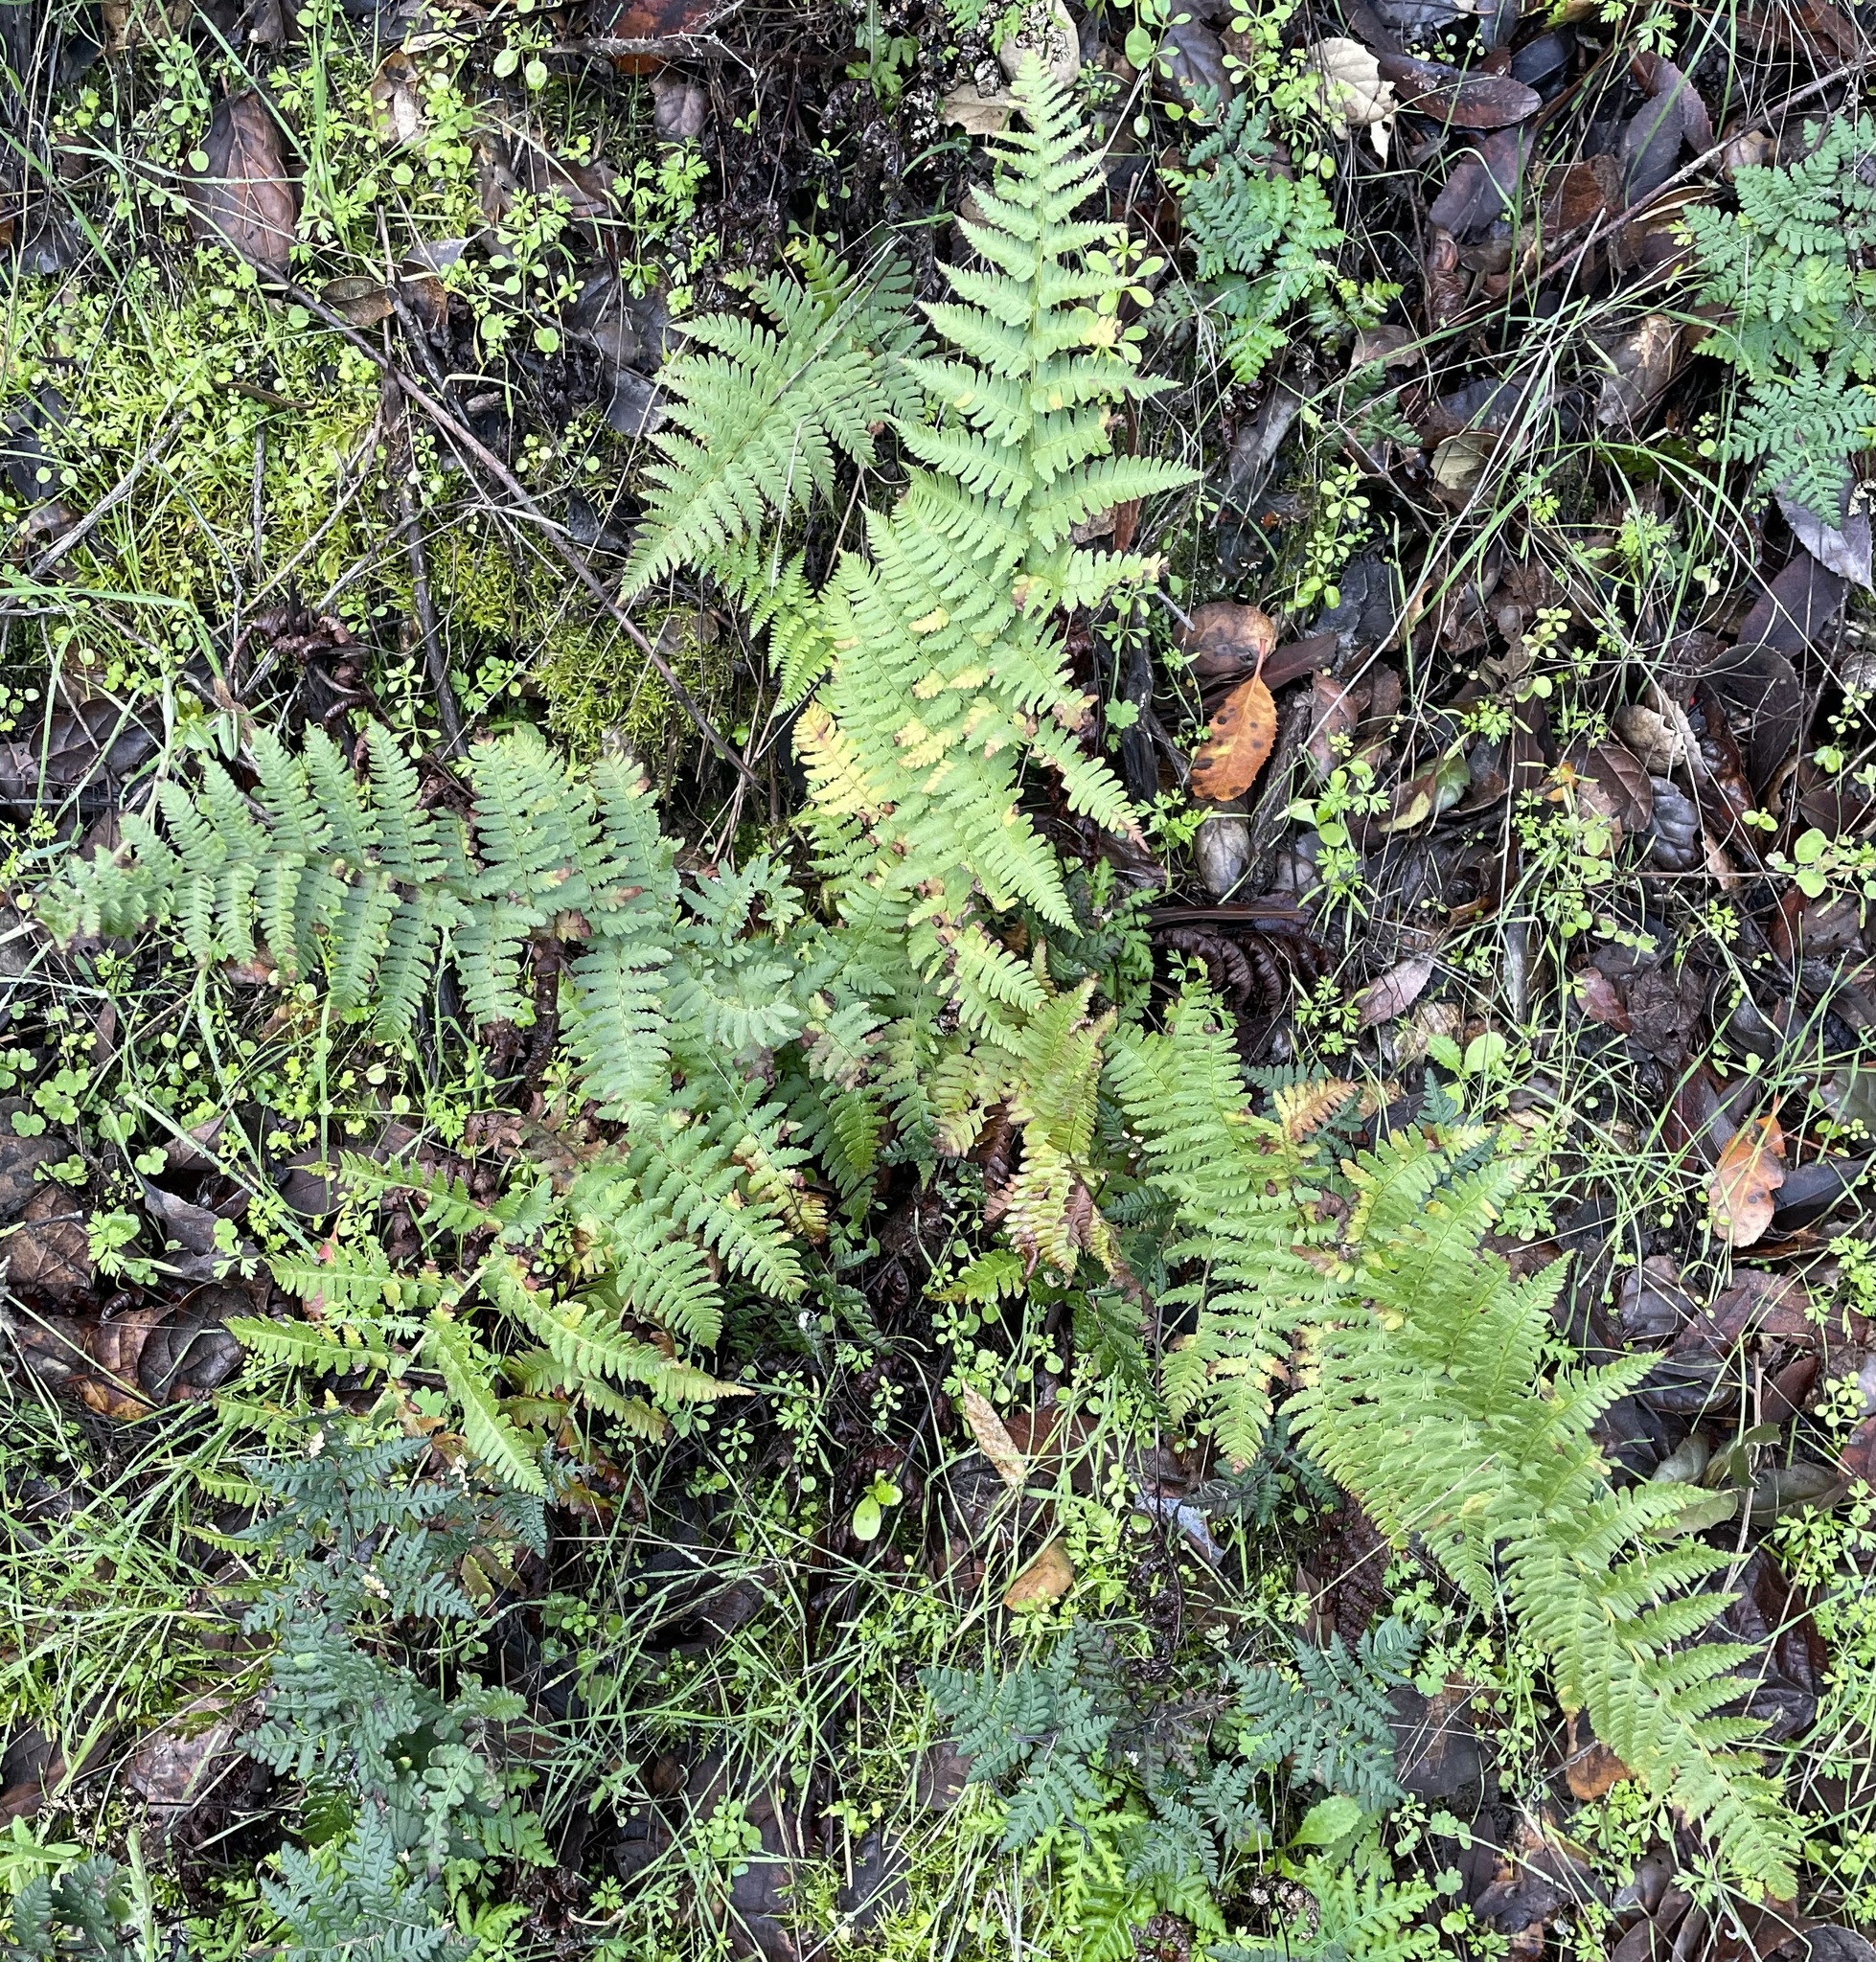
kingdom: Plantae
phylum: Tracheophyta
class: Polypodiopsida
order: Polypodiales
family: Dryopteridaceae
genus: Dryopteris
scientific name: Dryopteris arguta
